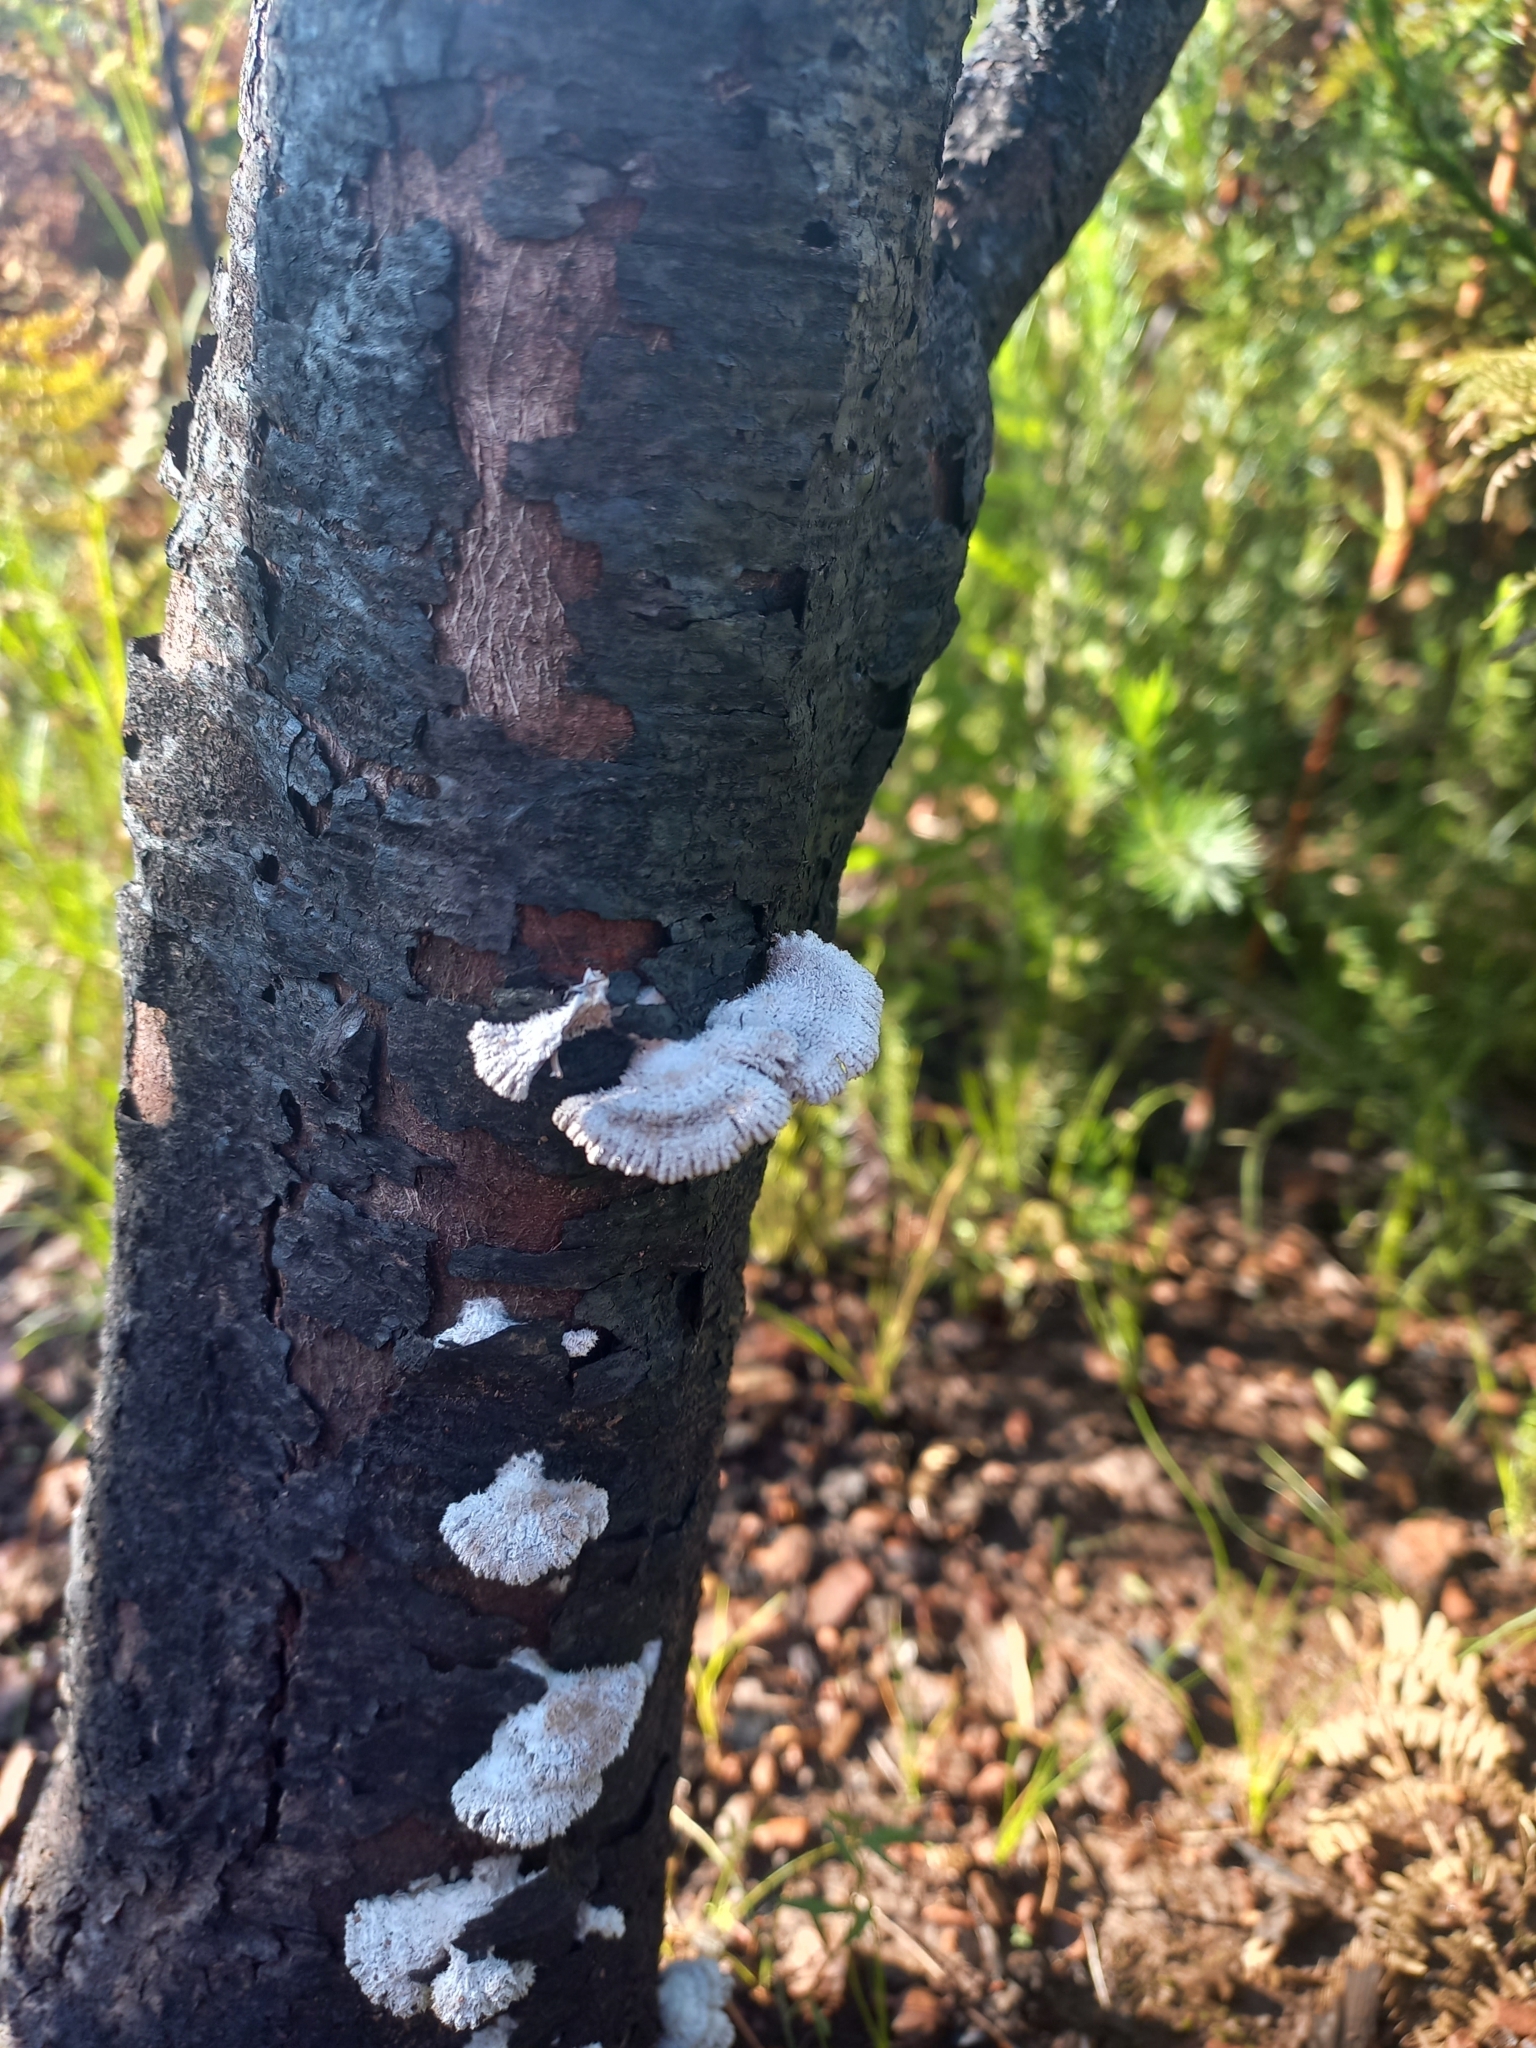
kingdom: Fungi
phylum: Basidiomycota
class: Agaricomycetes
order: Agaricales
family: Schizophyllaceae
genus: Schizophyllum
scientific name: Schizophyllum commune
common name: Common porecrust
